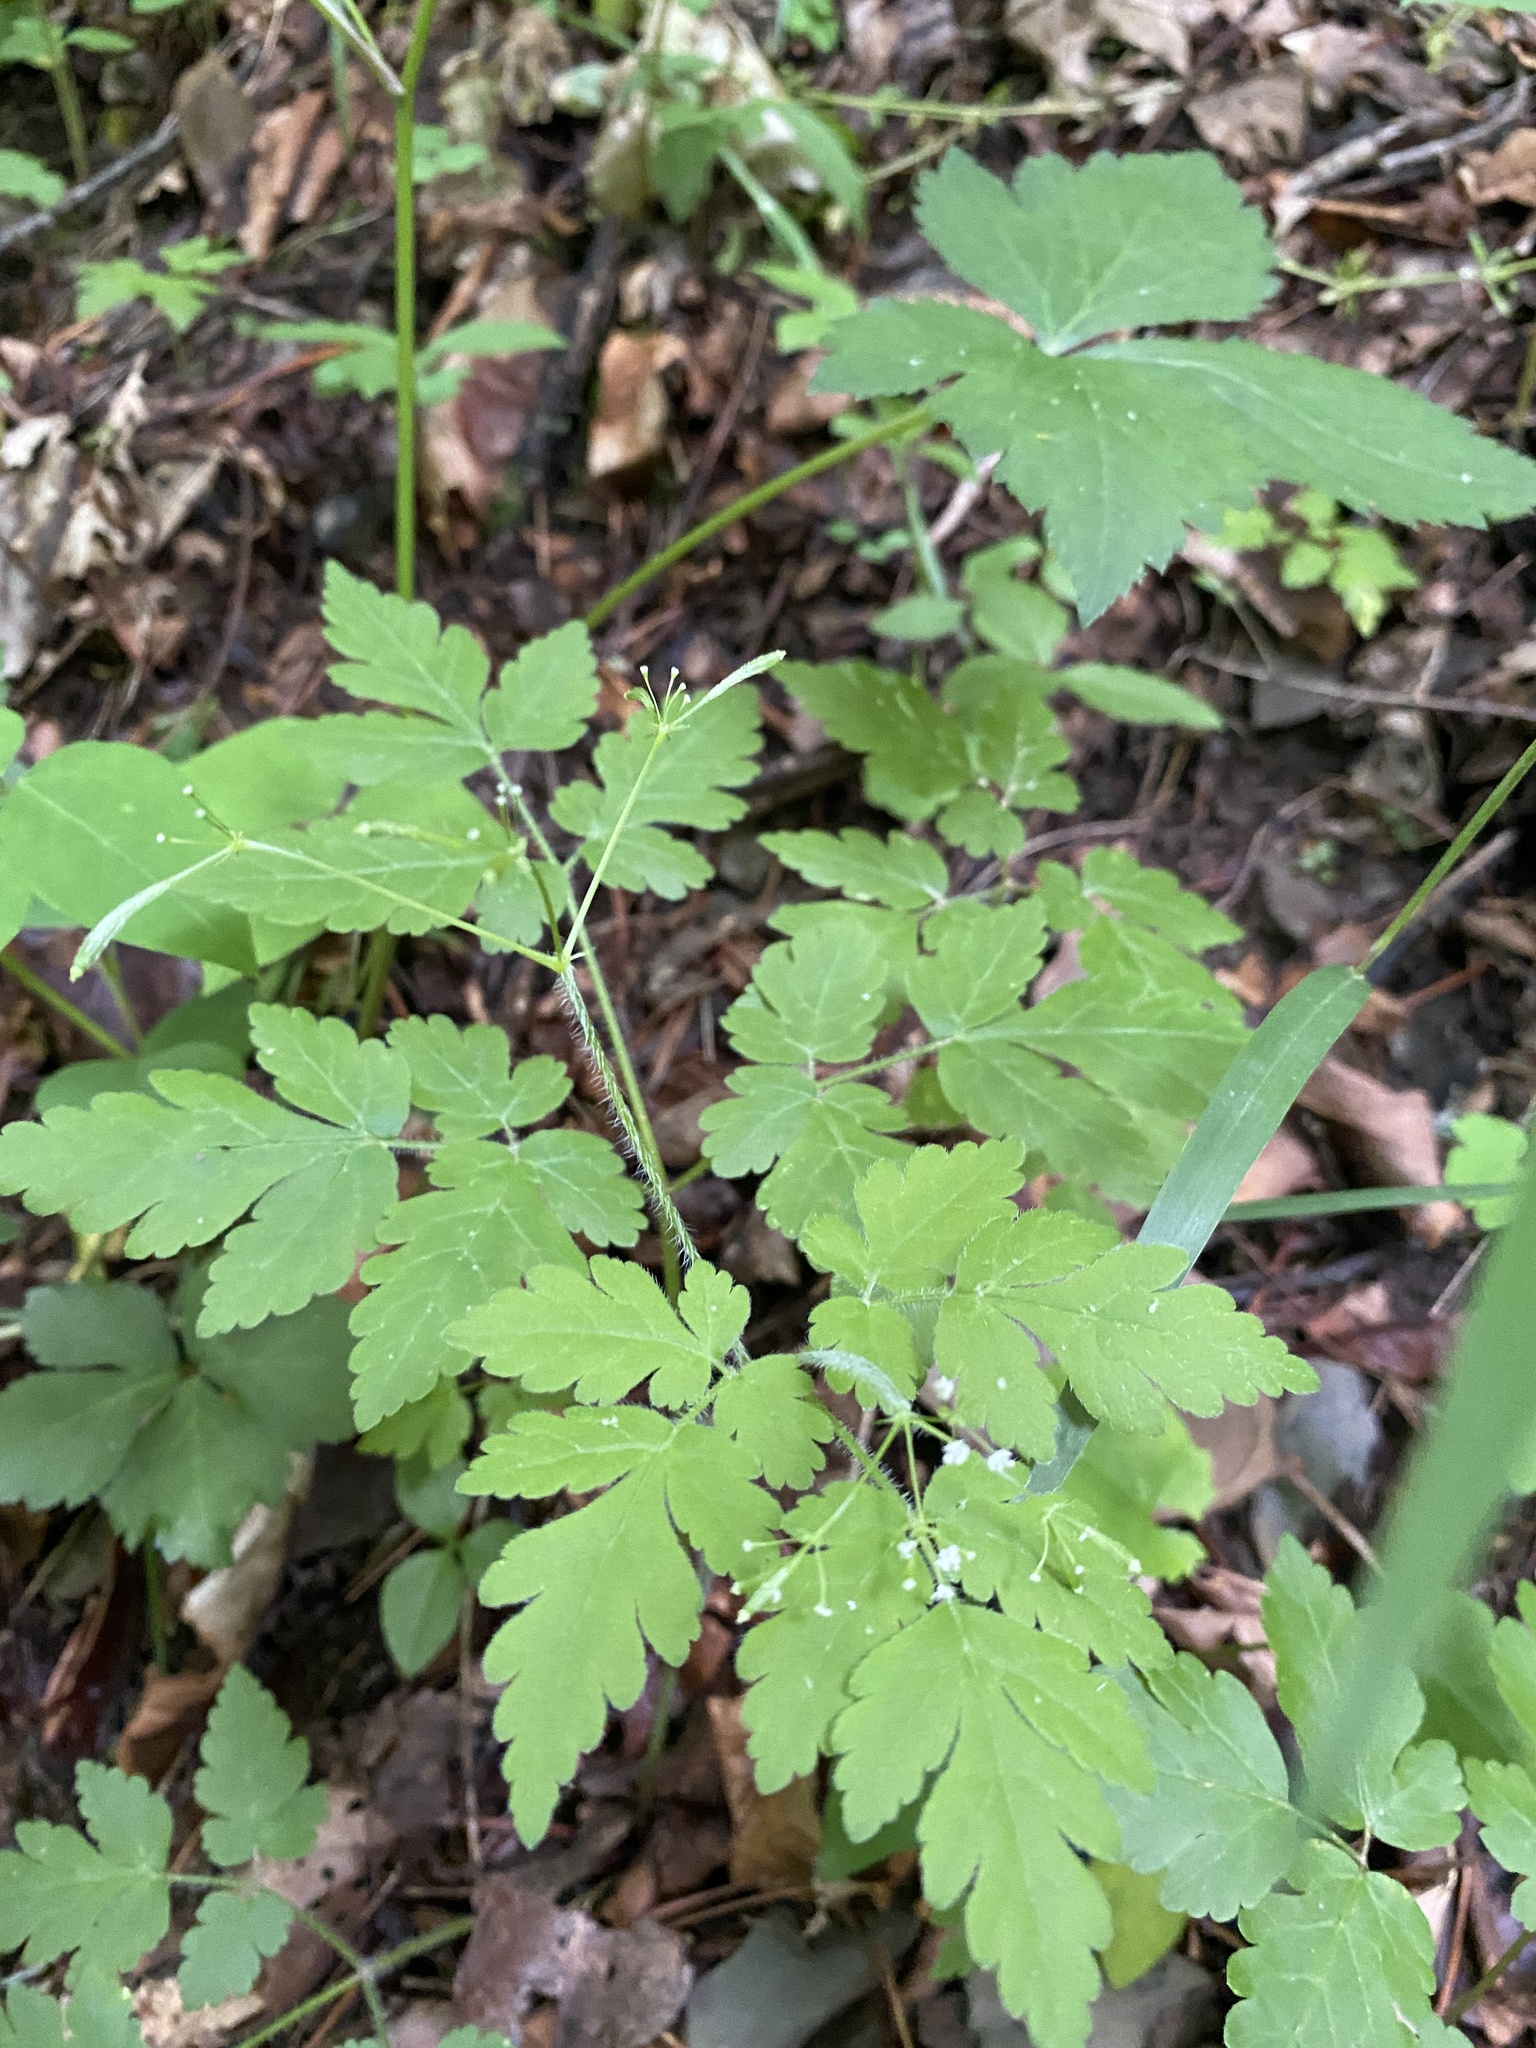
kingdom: Plantae
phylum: Tracheophyta
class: Magnoliopsida
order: Apiales
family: Apiaceae
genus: Osmorhiza
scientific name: Osmorhiza claytonii
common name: Hairy sweet cicely
